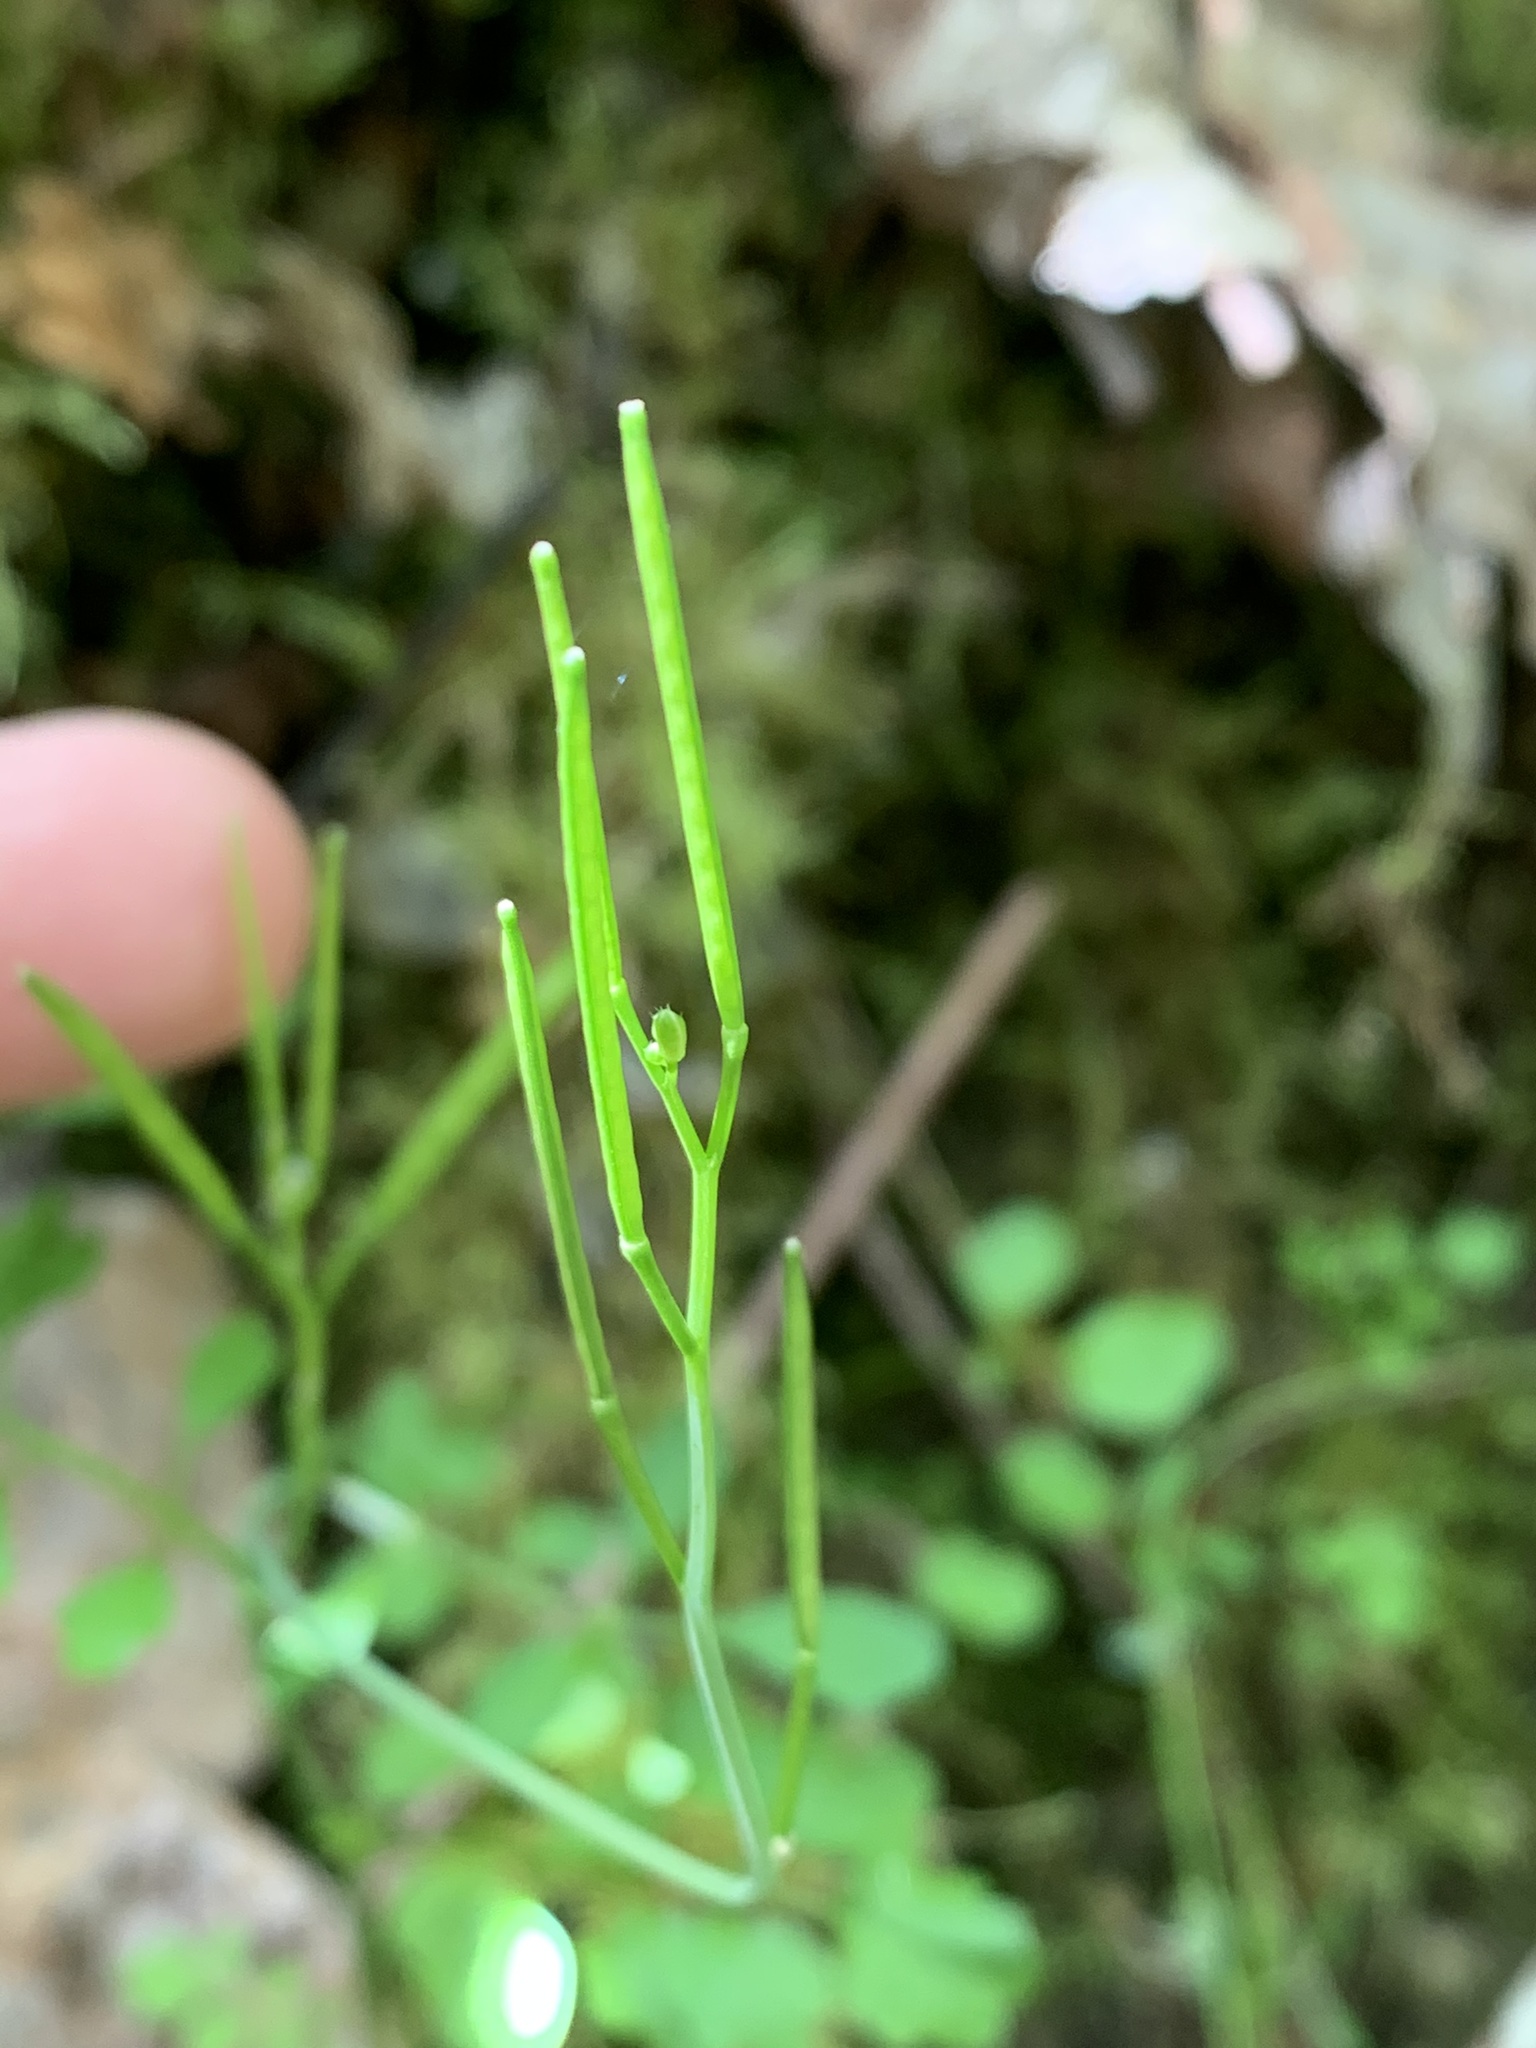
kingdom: Plantae
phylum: Tracheophyta
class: Magnoliopsida
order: Brassicales
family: Brassicaceae
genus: Cardamine
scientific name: Cardamine oligosperma
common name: Idaho bittercress
